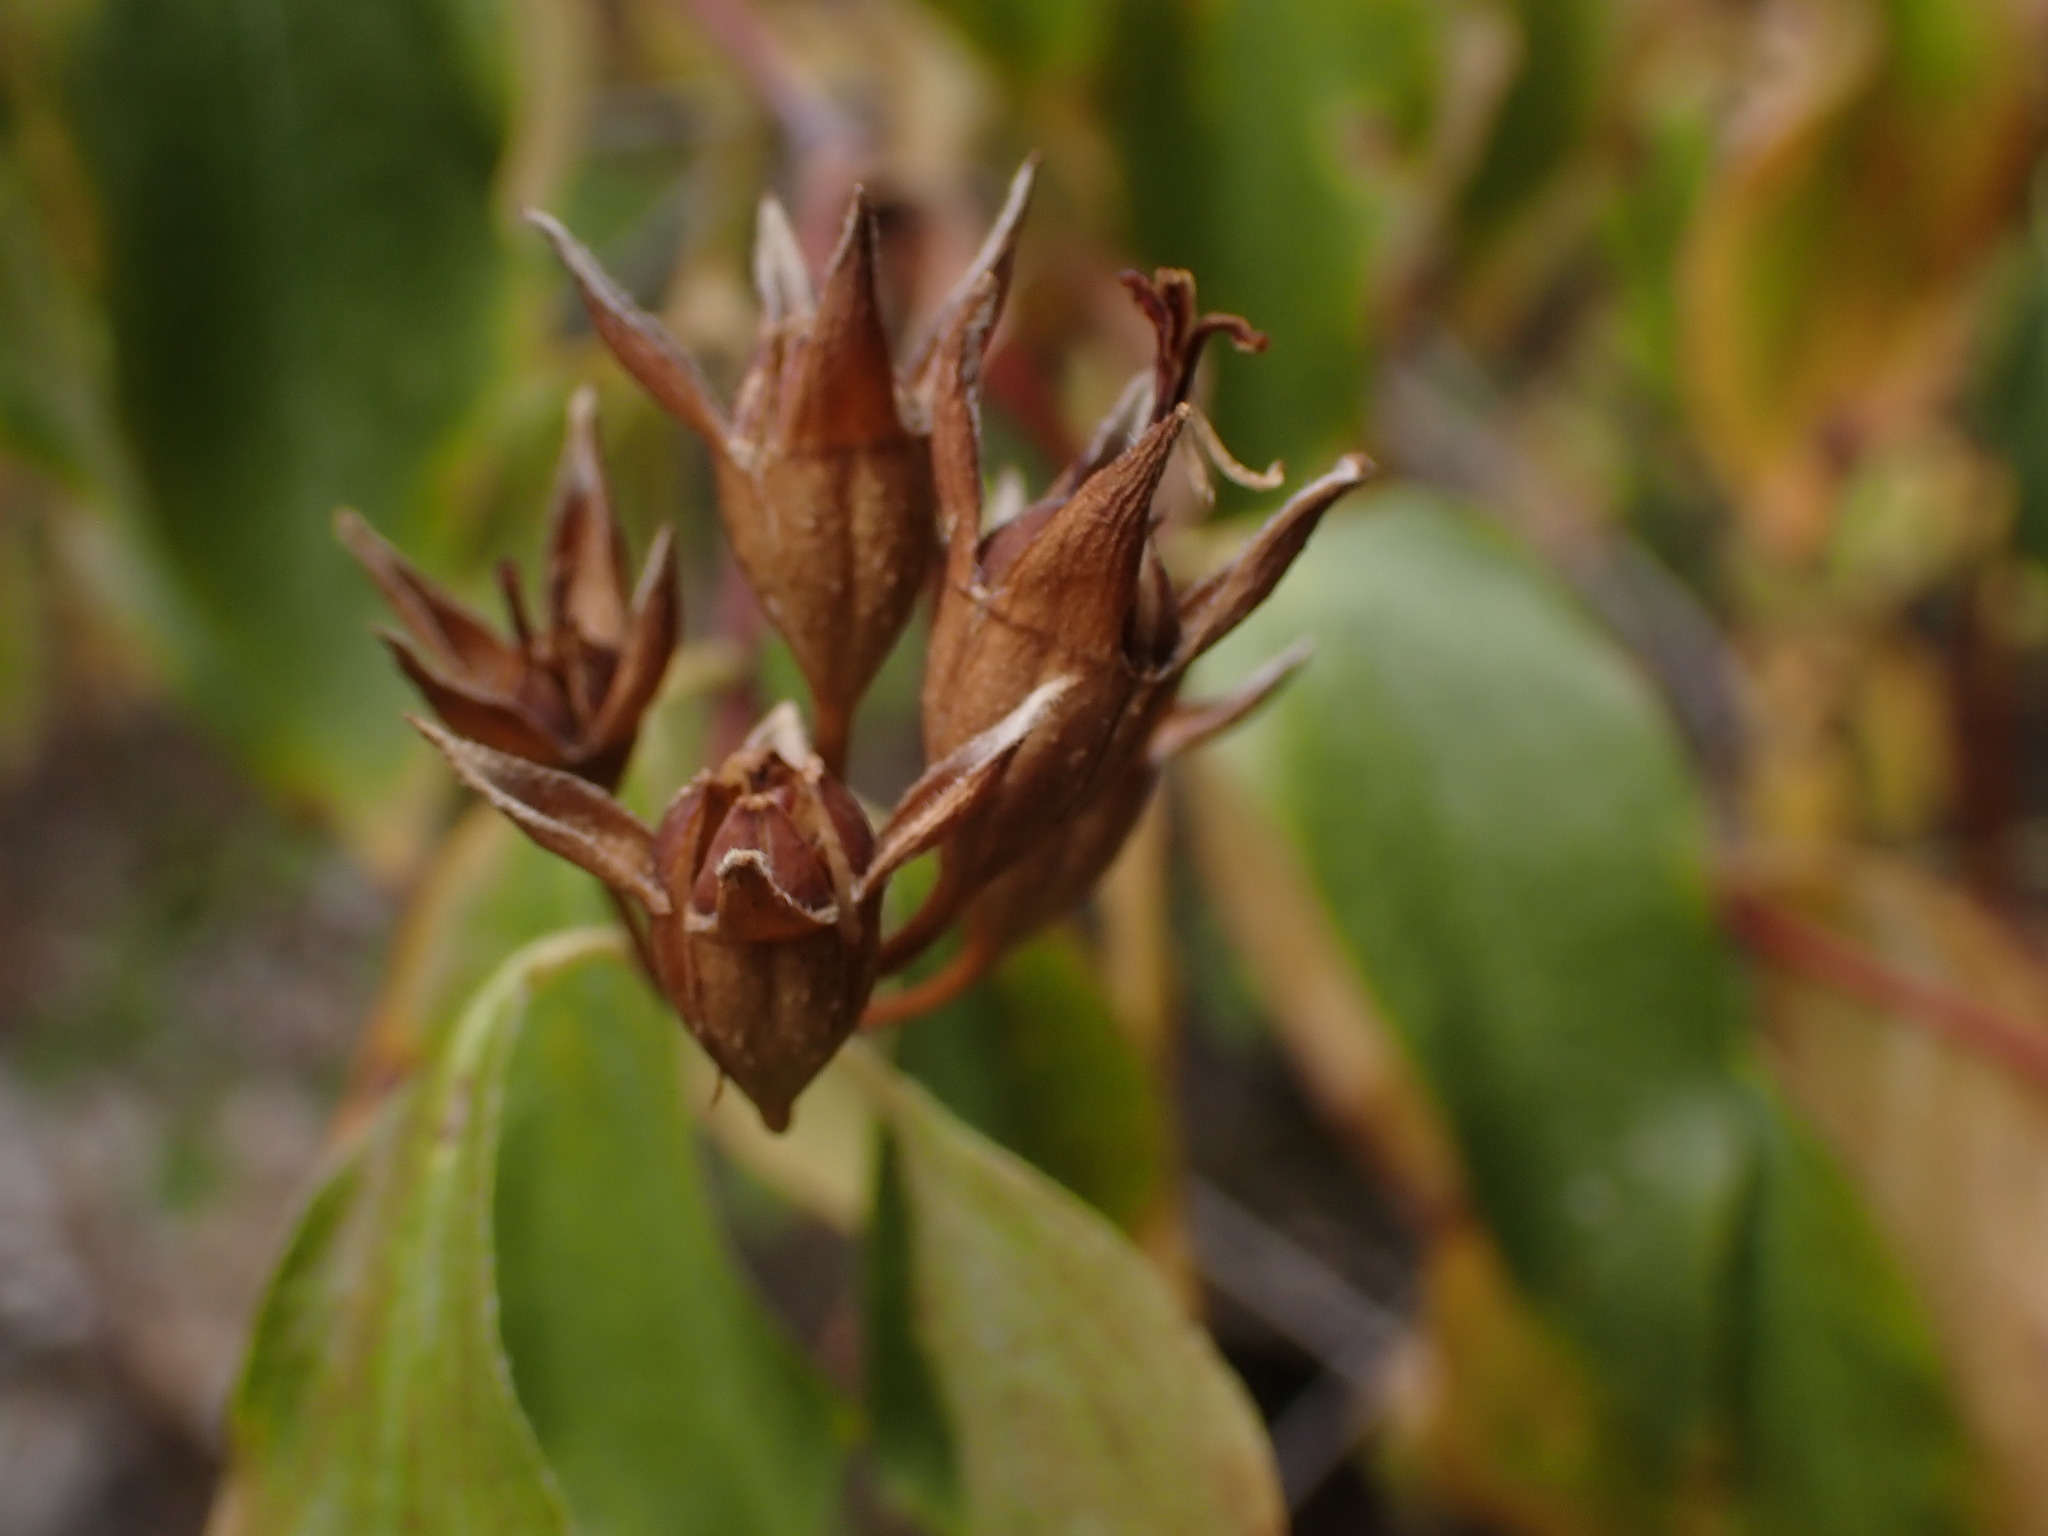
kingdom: Plantae
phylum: Tracheophyta
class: Magnoliopsida
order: Cornales
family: Hydrangeaceae
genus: Philadelphus
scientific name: Philadelphus lewisii
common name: Lewis's mock orange
